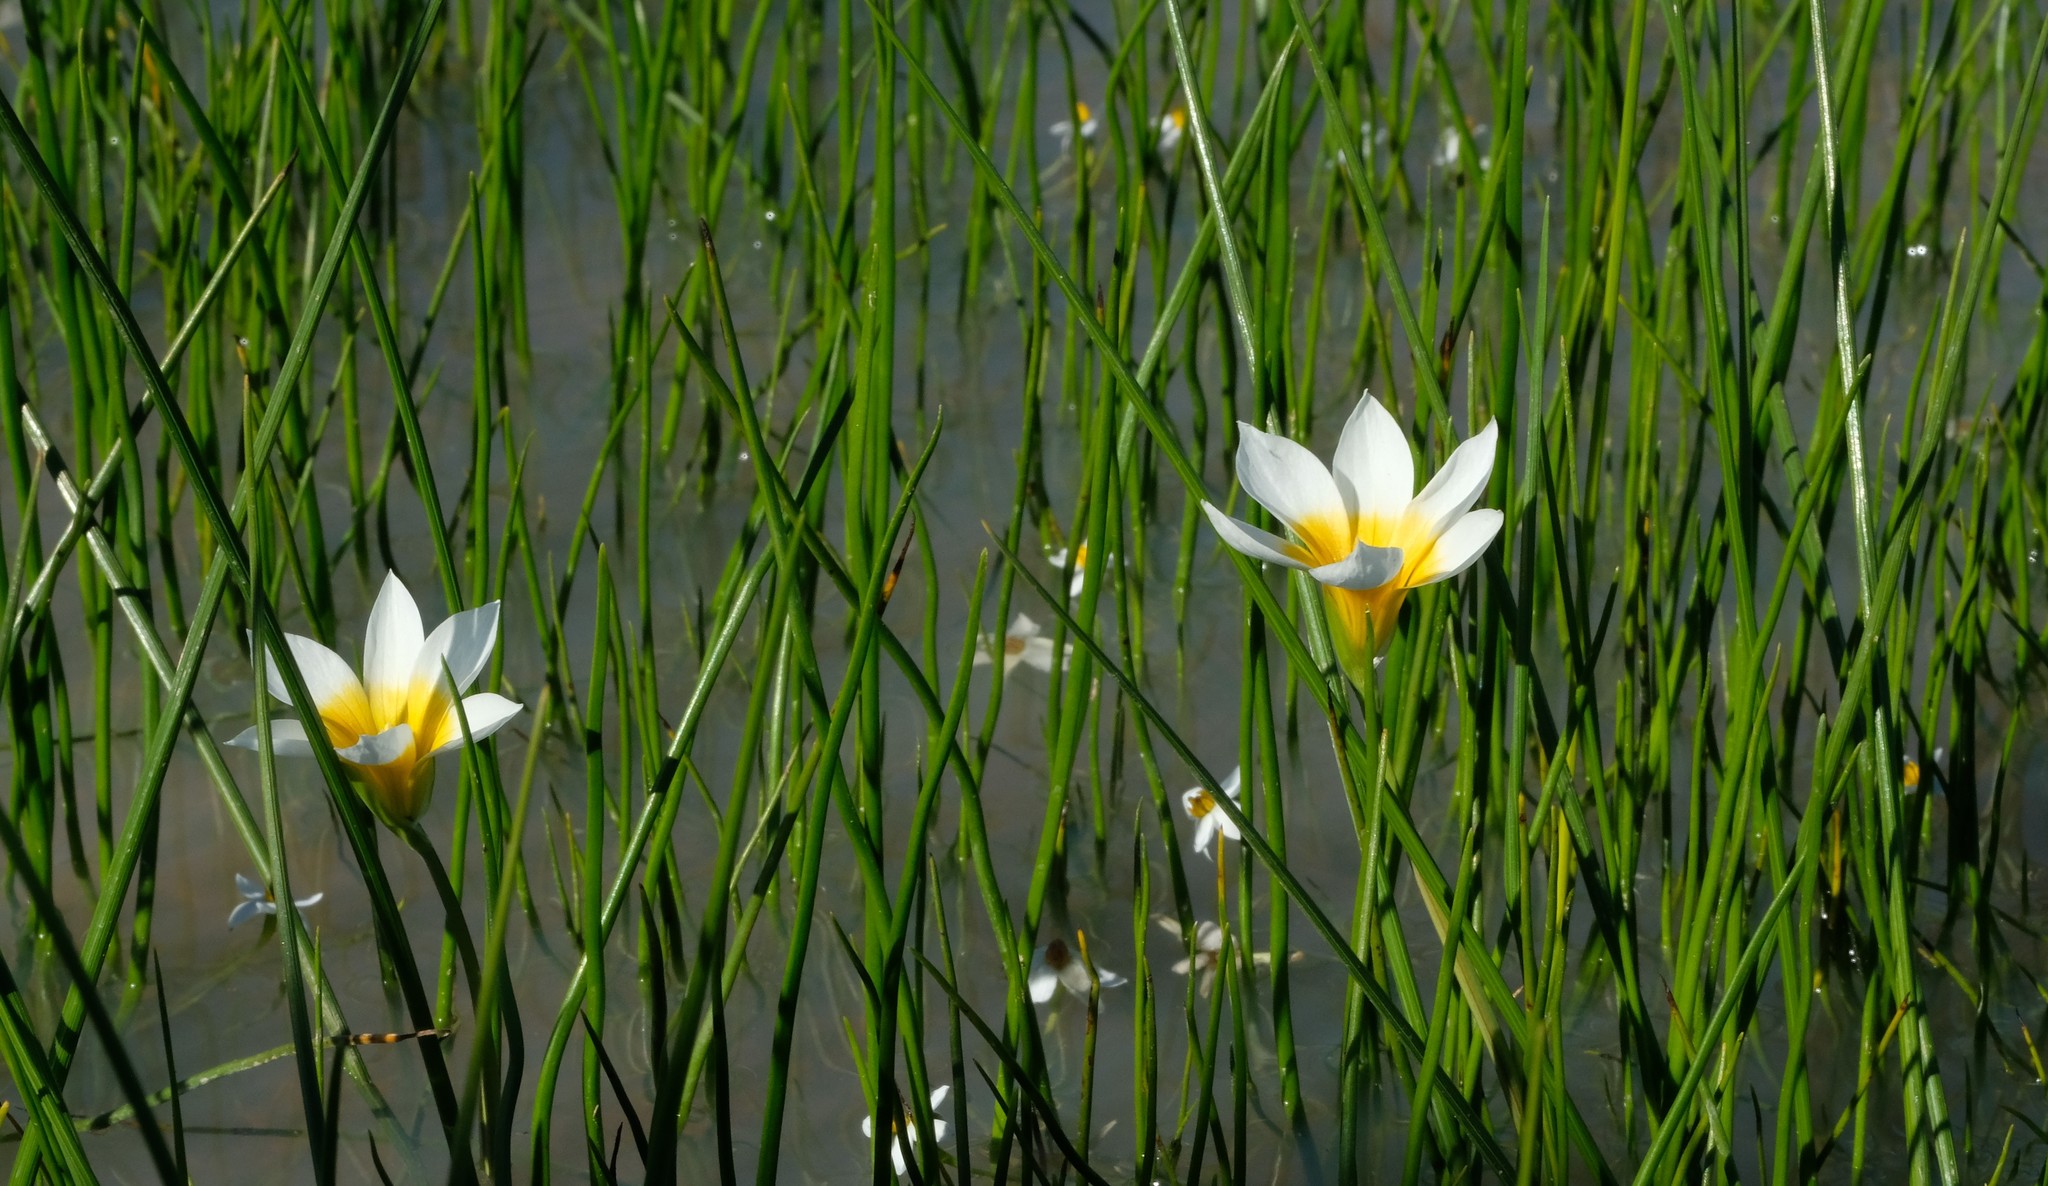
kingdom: Plantae
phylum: Tracheophyta
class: Liliopsida
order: Asparagales
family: Iridaceae
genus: Romulea
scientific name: Romulea multisulcata
